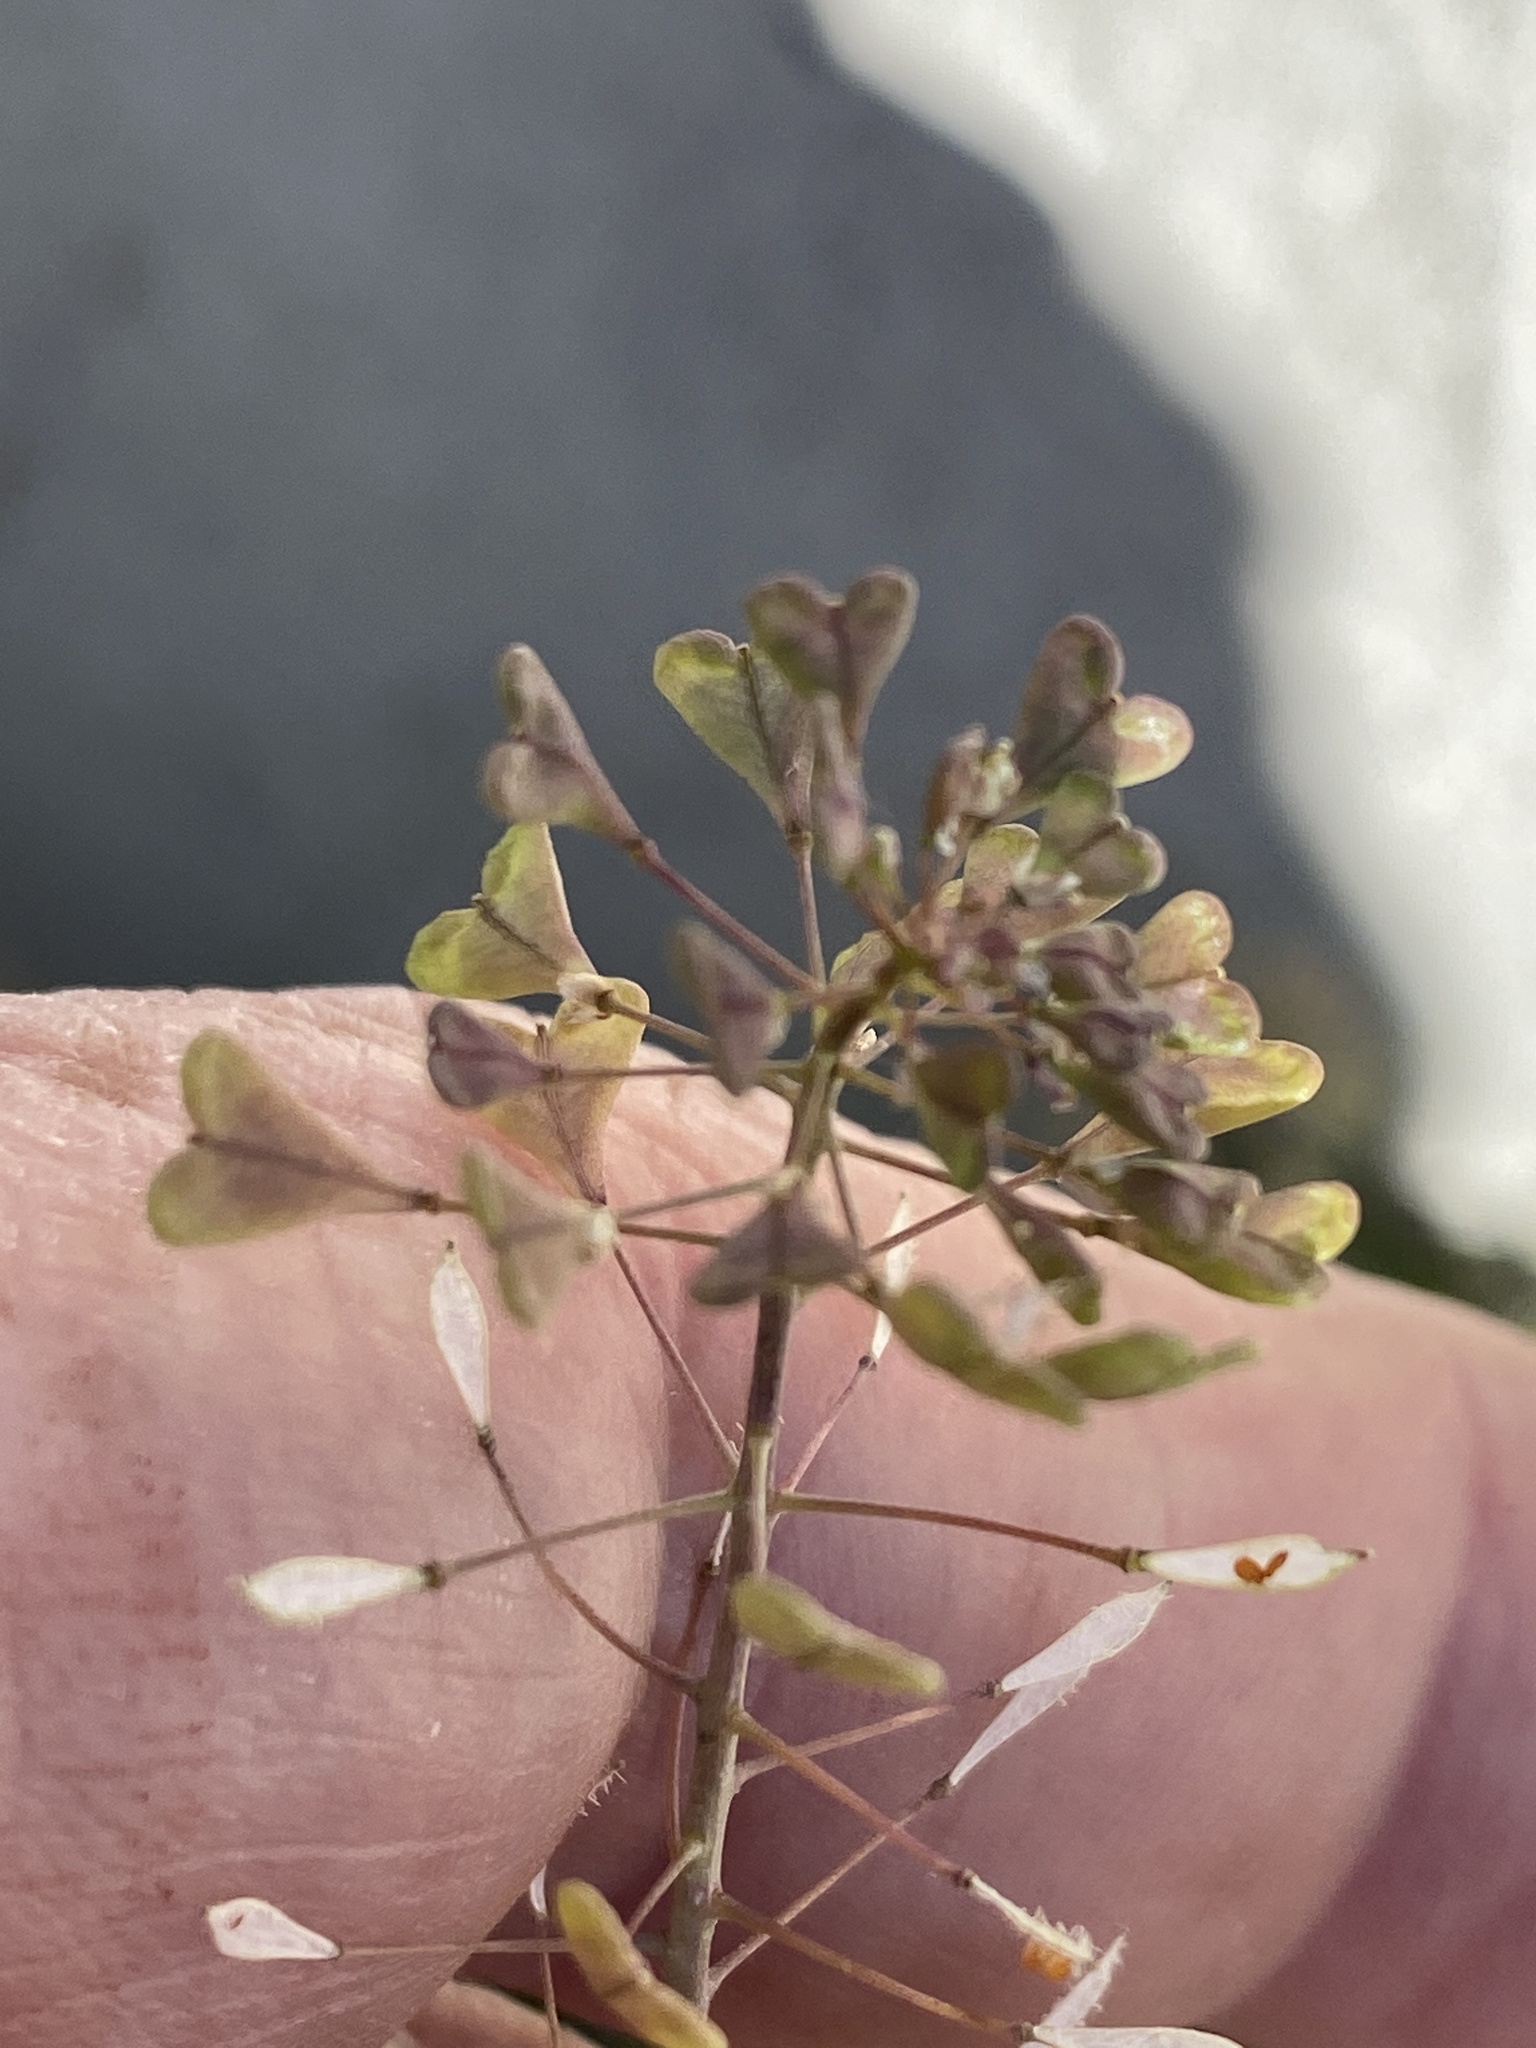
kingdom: Plantae
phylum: Tracheophyta
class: Magnoliopsida
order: Brassicales
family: Brassicaceae
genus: Capsella
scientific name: Capsella bursa-pastoris
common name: Shepherd's purse
